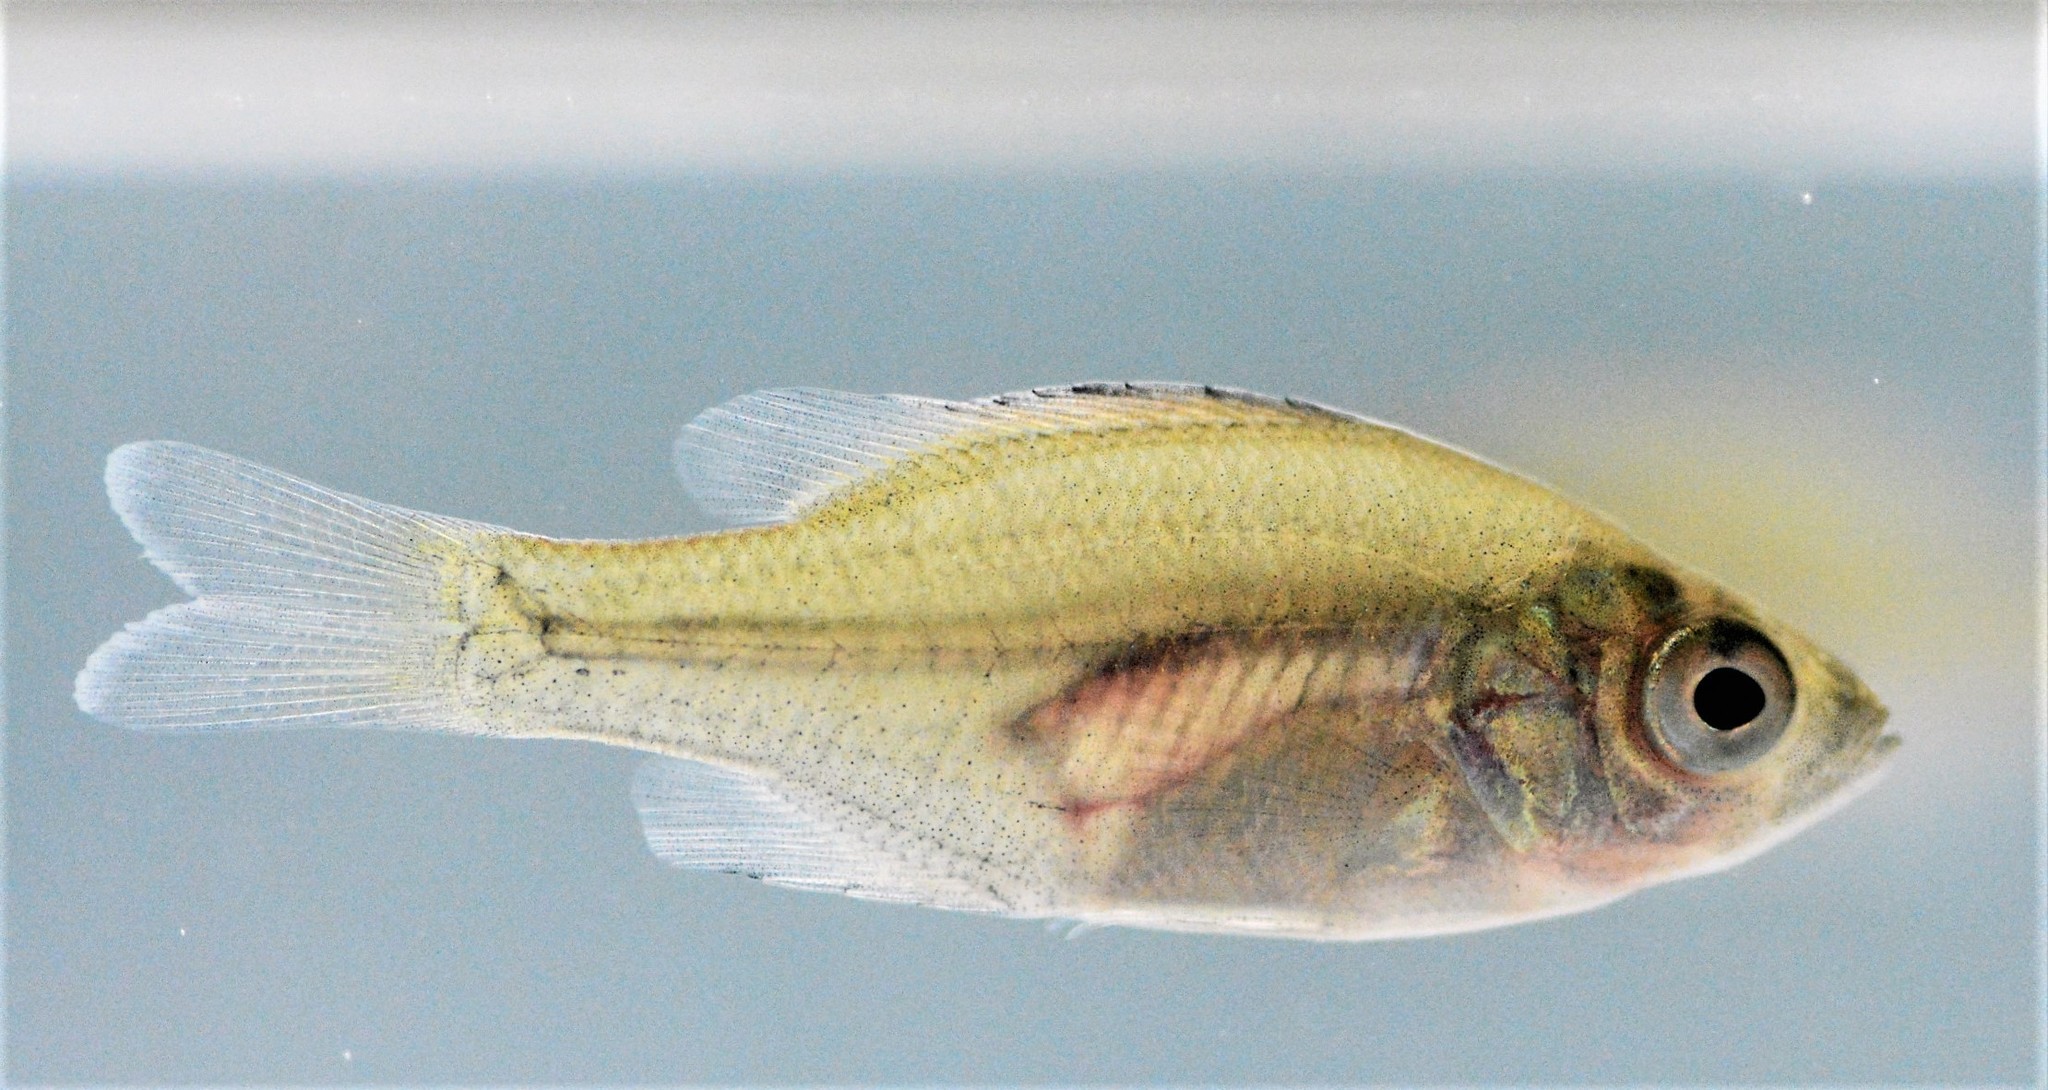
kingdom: Animalia
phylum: Chordata
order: Perciformes
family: Centrarchidae
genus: Lepomis
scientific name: Lepomis macrochirus
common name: Bluegill
